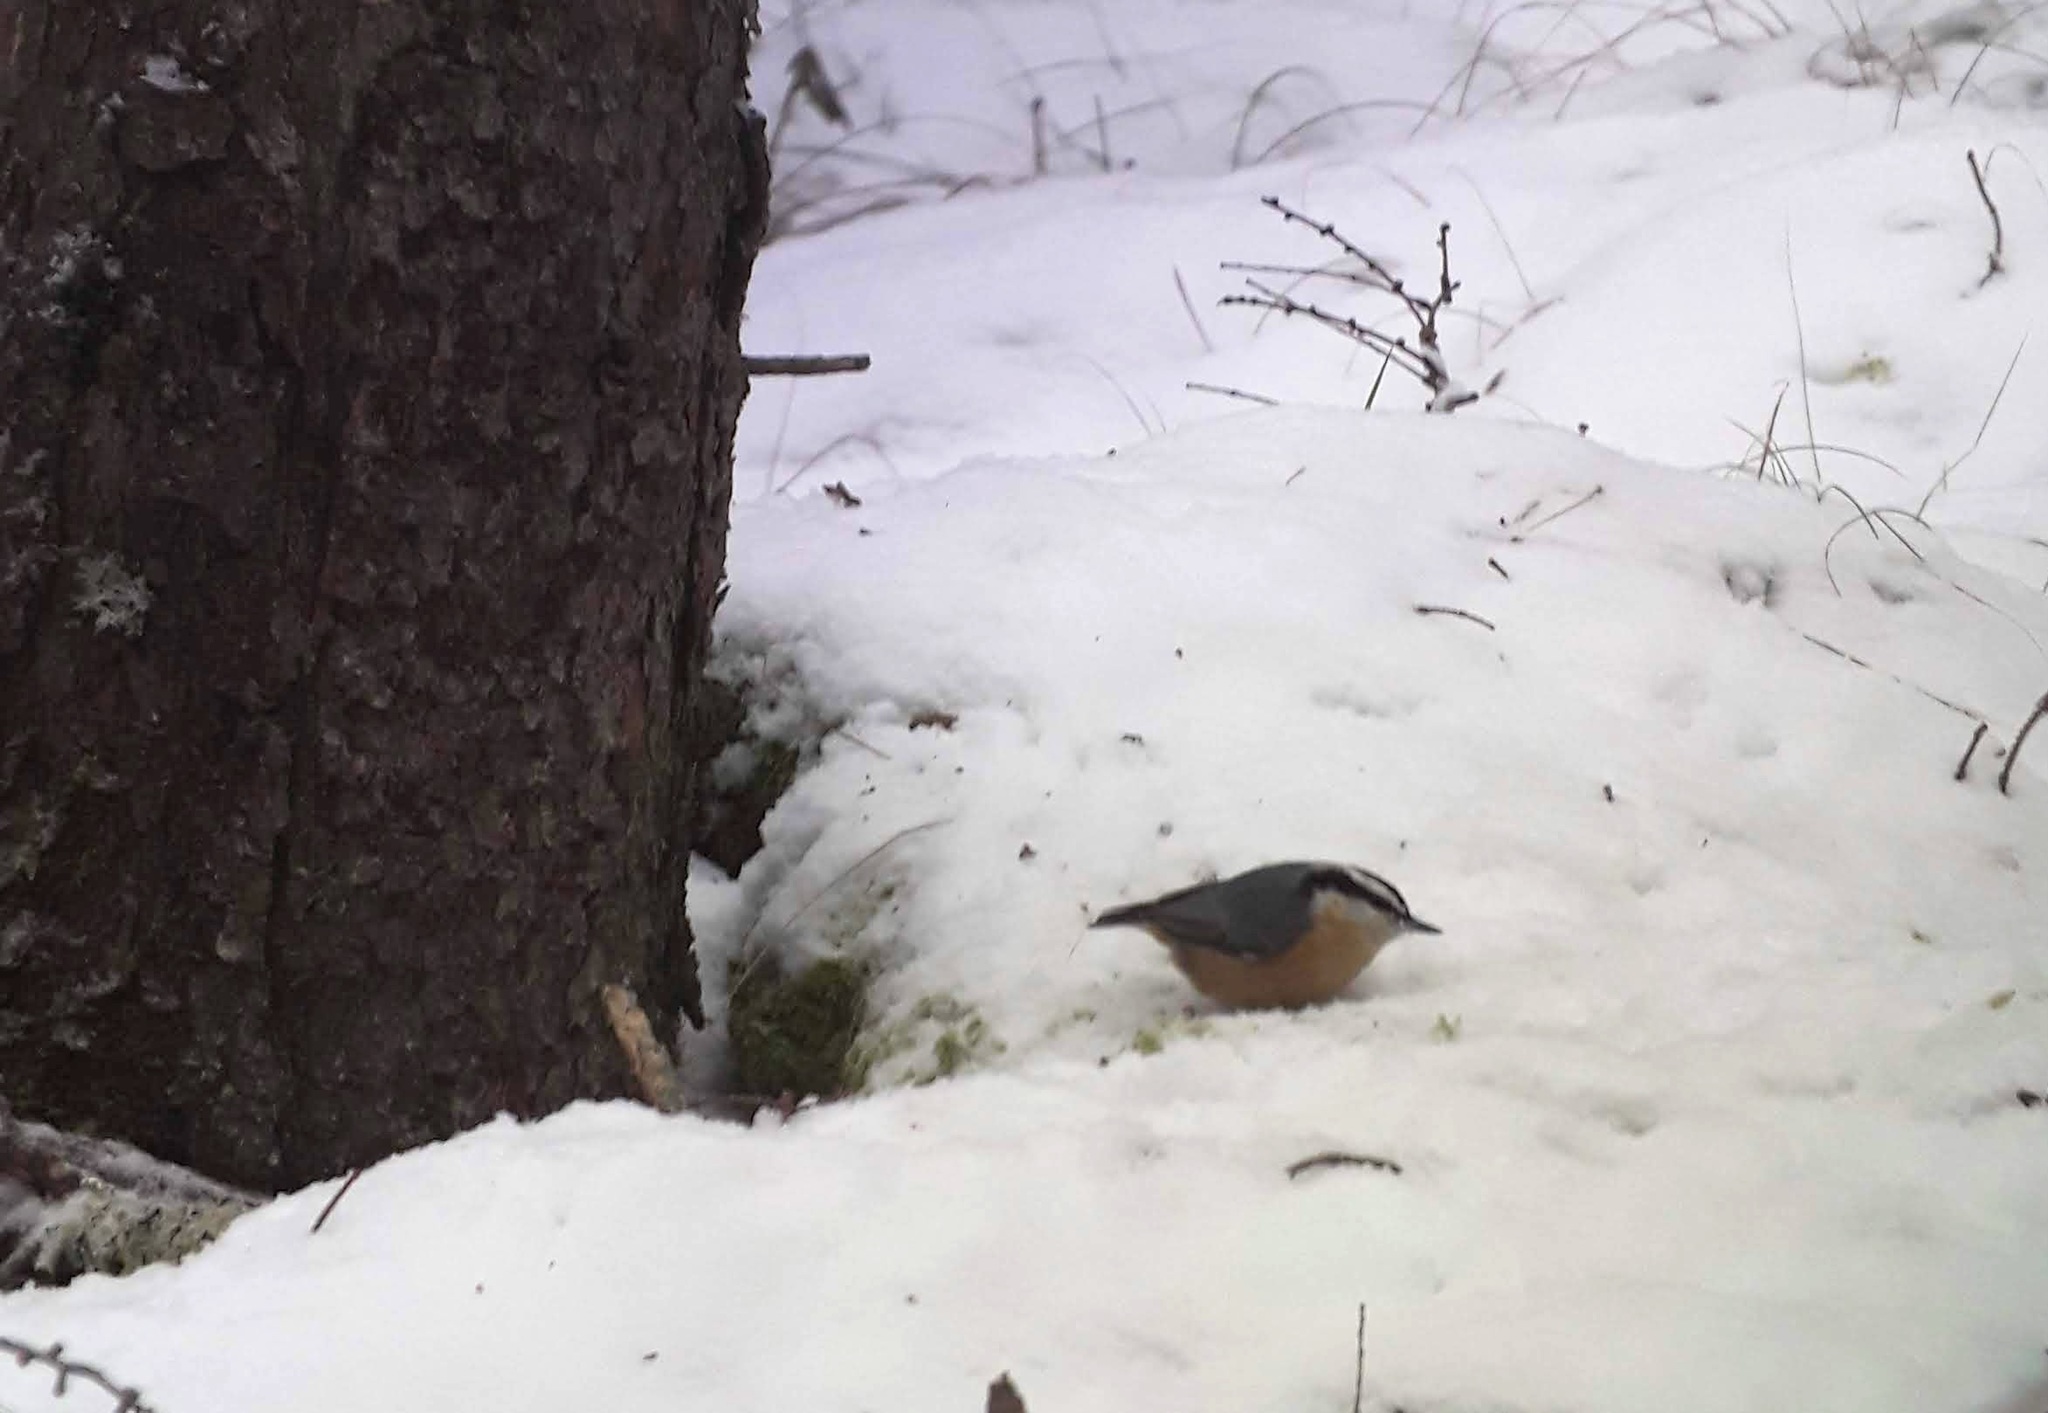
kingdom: Animalia
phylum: Chordata
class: Aves
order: Passeriformes
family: Sittidae
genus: Sitta
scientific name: Sitta canadensis
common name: Red-breasted nuthatch
